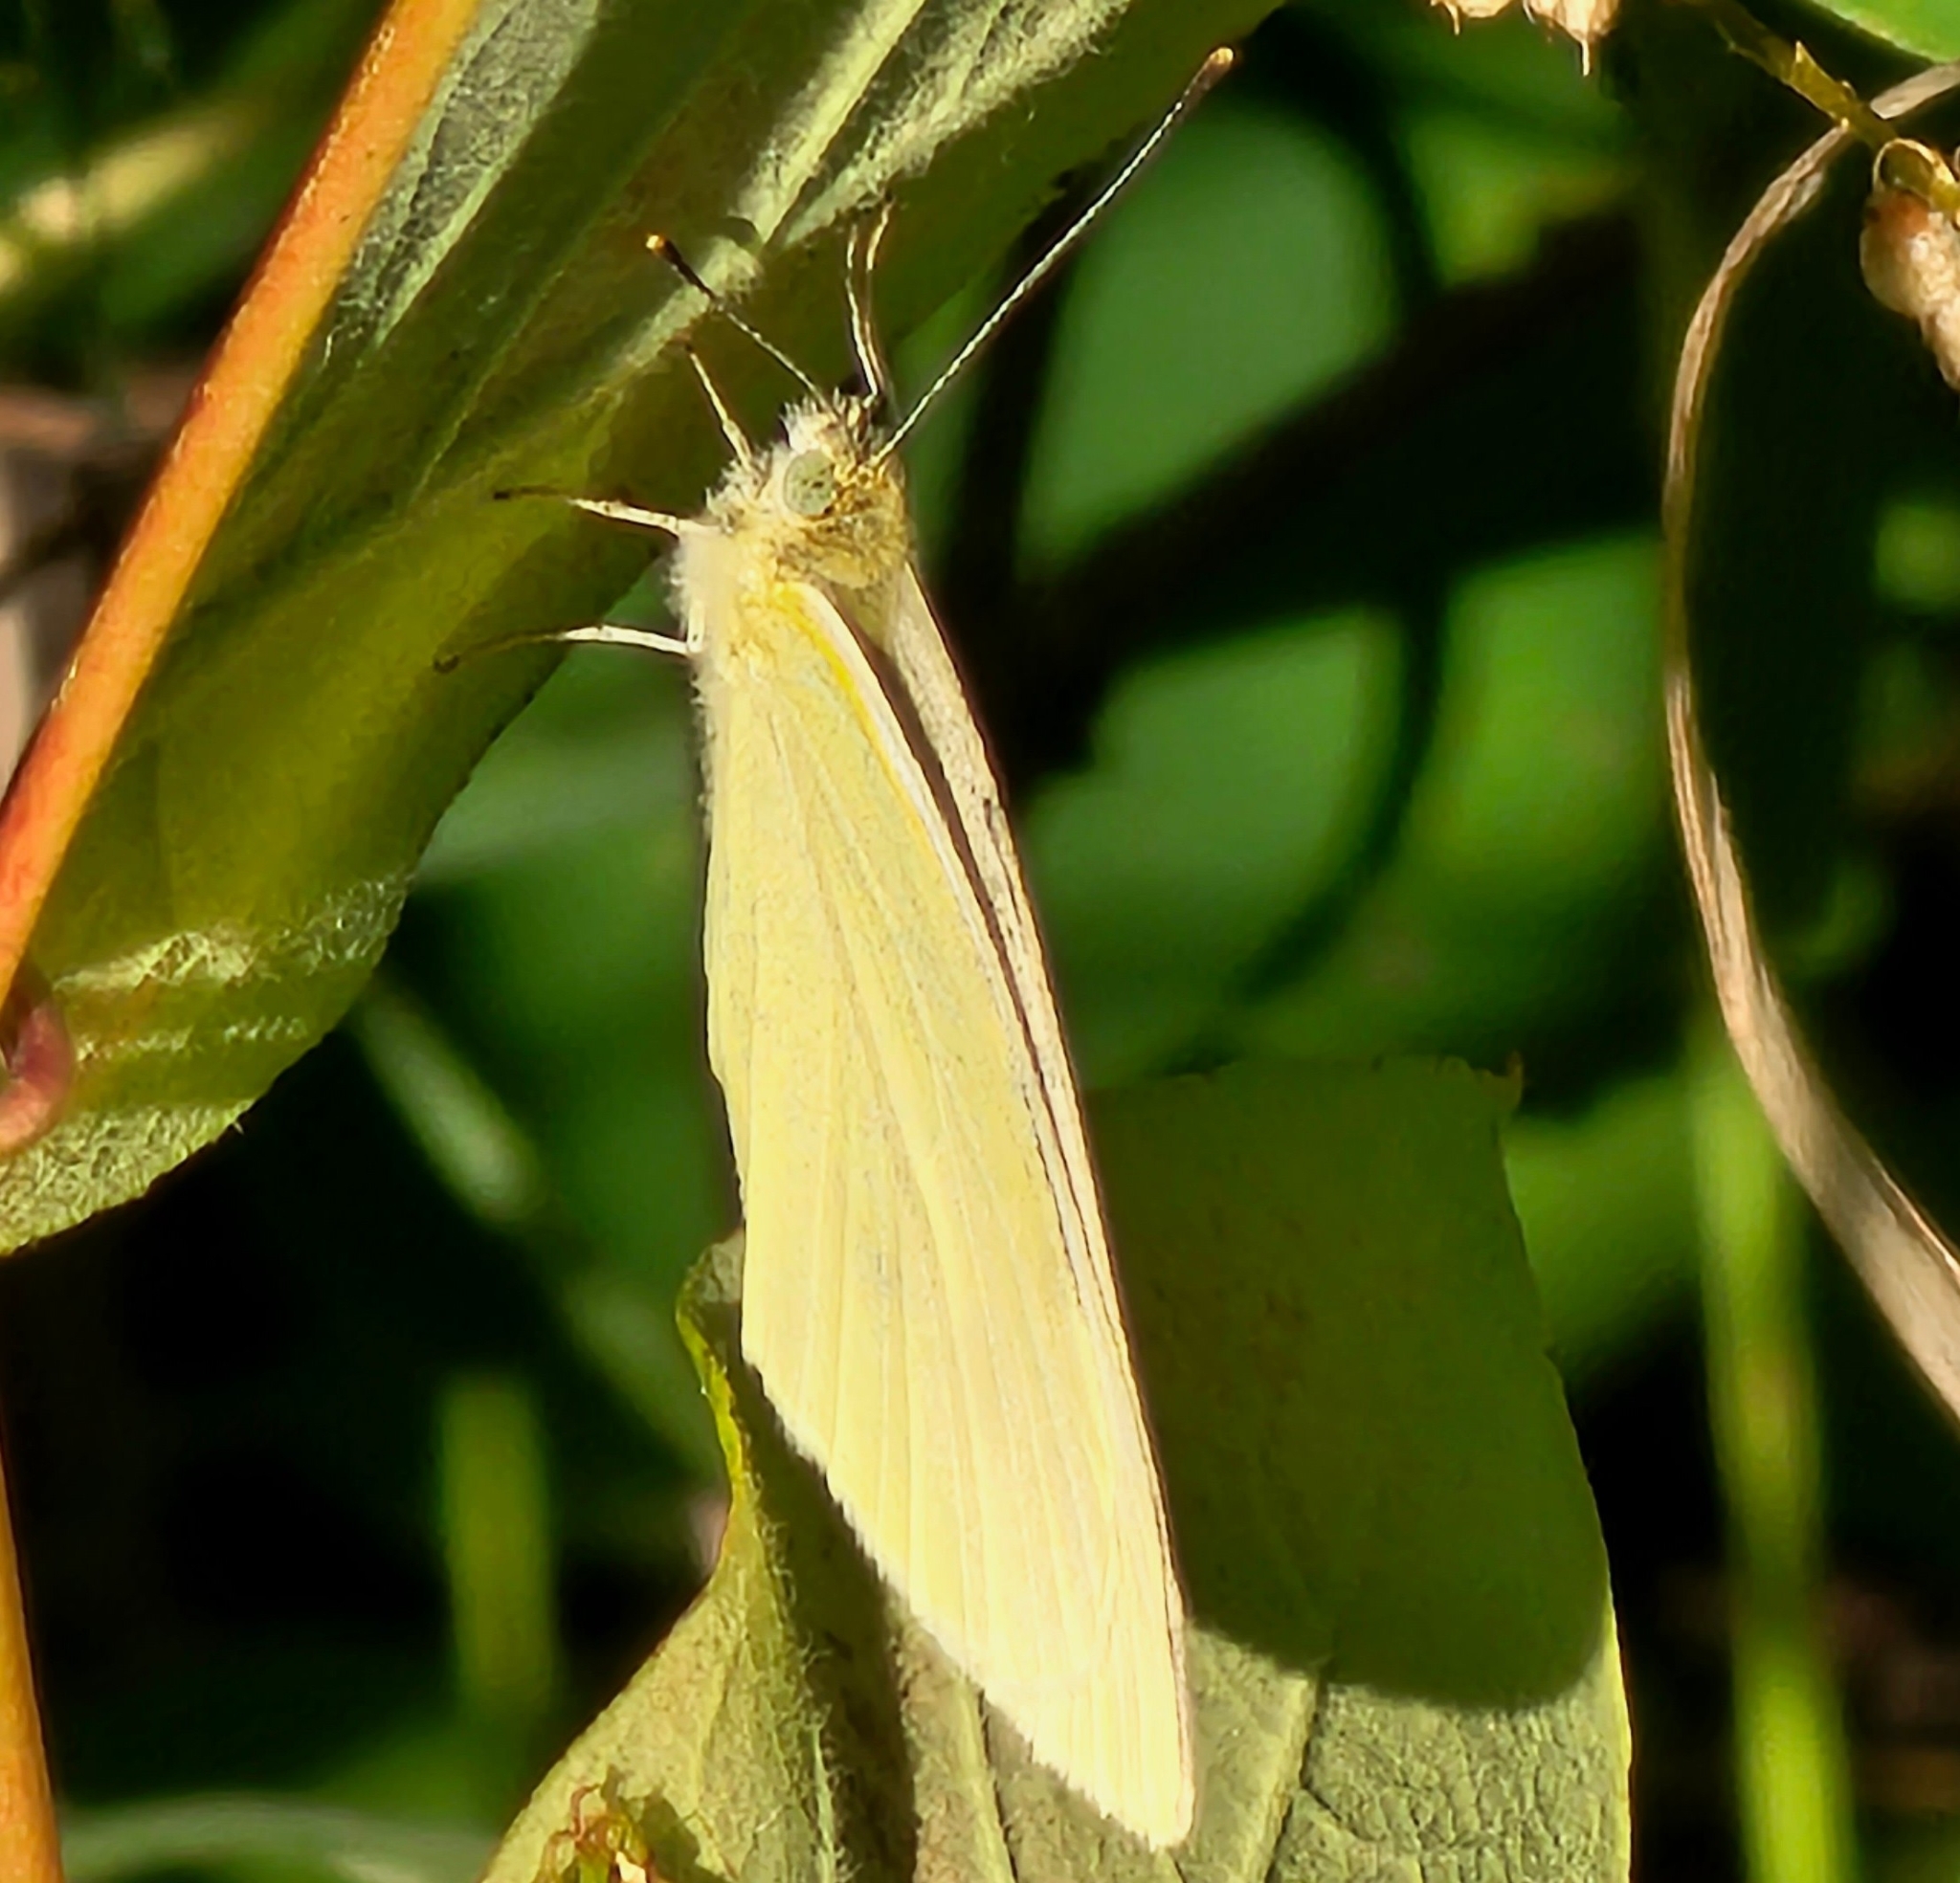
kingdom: Animalia
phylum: Arthropoda
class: Insecta
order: Lepidoptera
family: Pieridae
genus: Pieris
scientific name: Pieris rapae
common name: Small white
